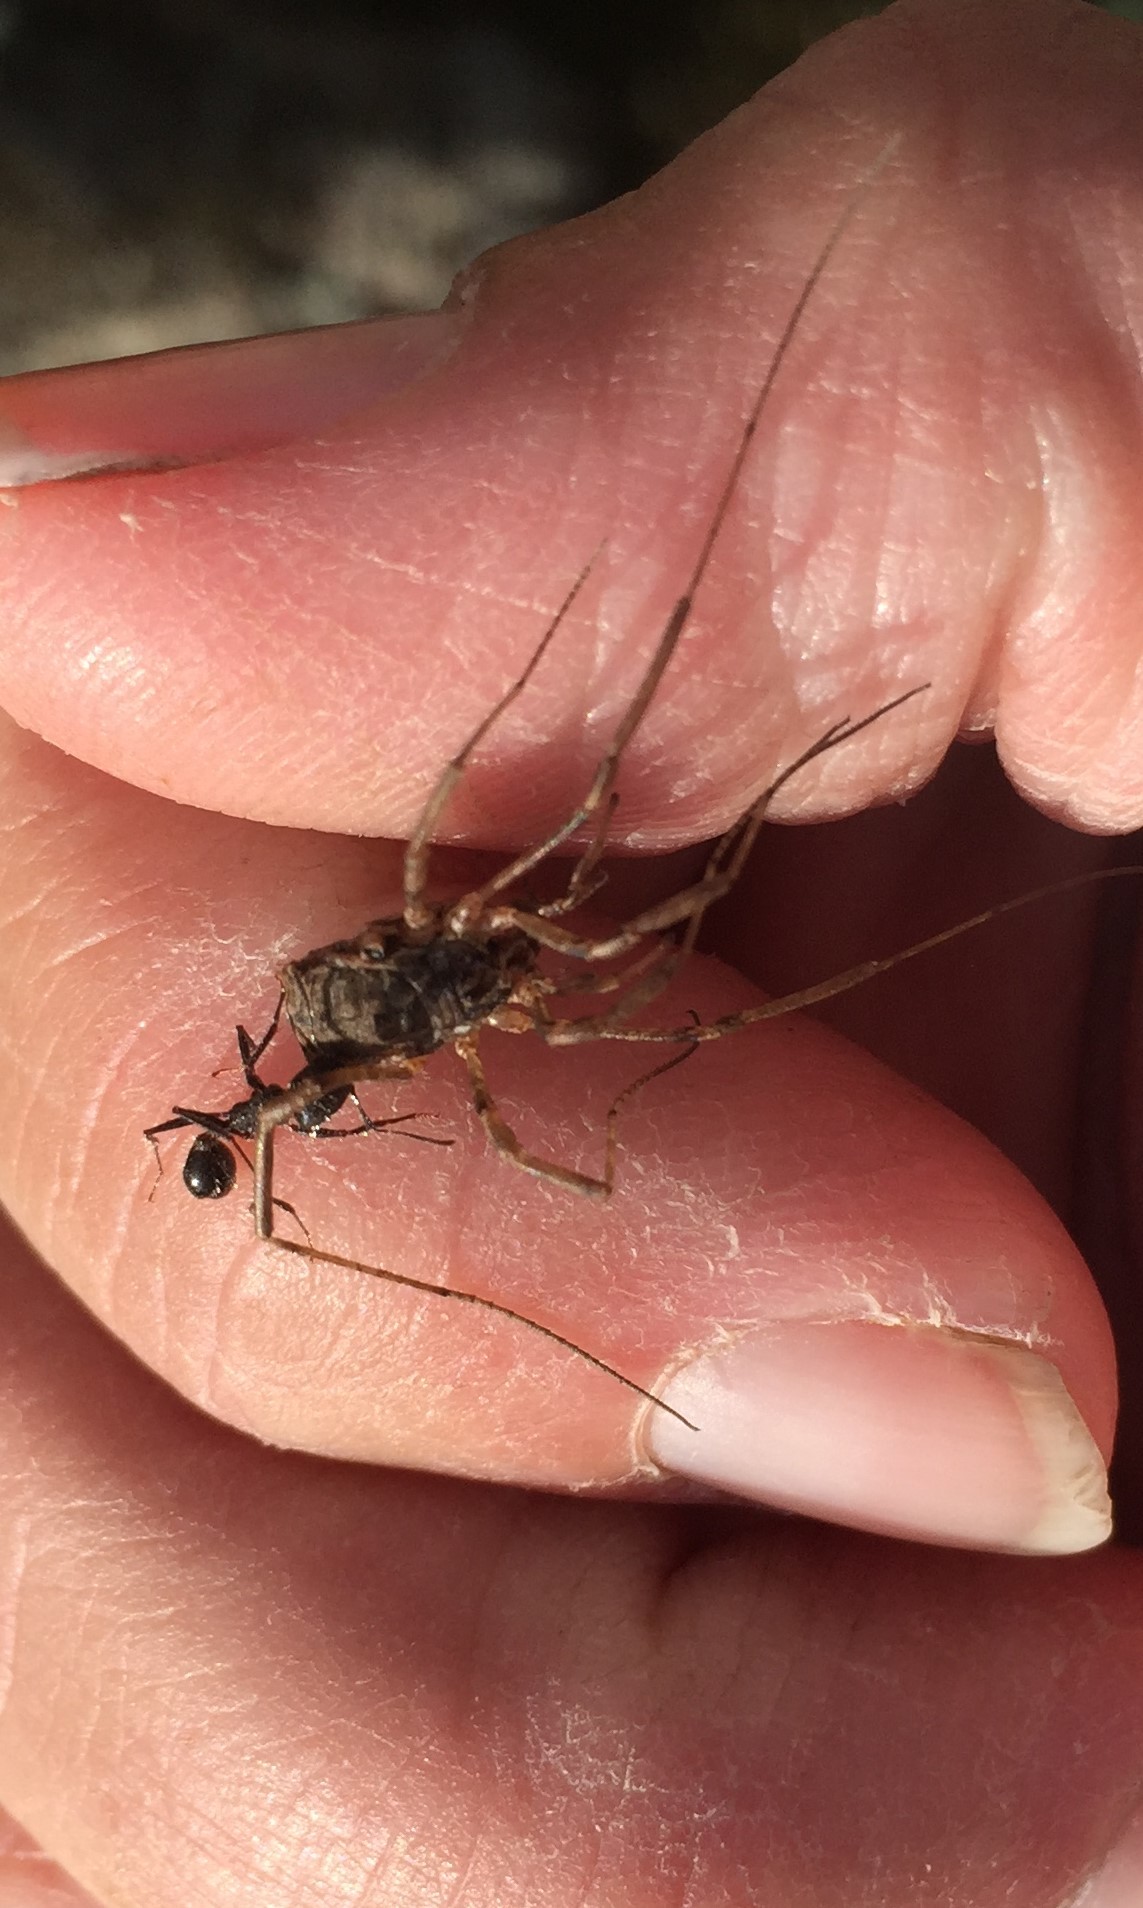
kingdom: Animalia
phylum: Arthropoda
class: Insecta
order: Hymenoptera
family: Formicidae
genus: Veromessor
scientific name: Veromessor andrei
